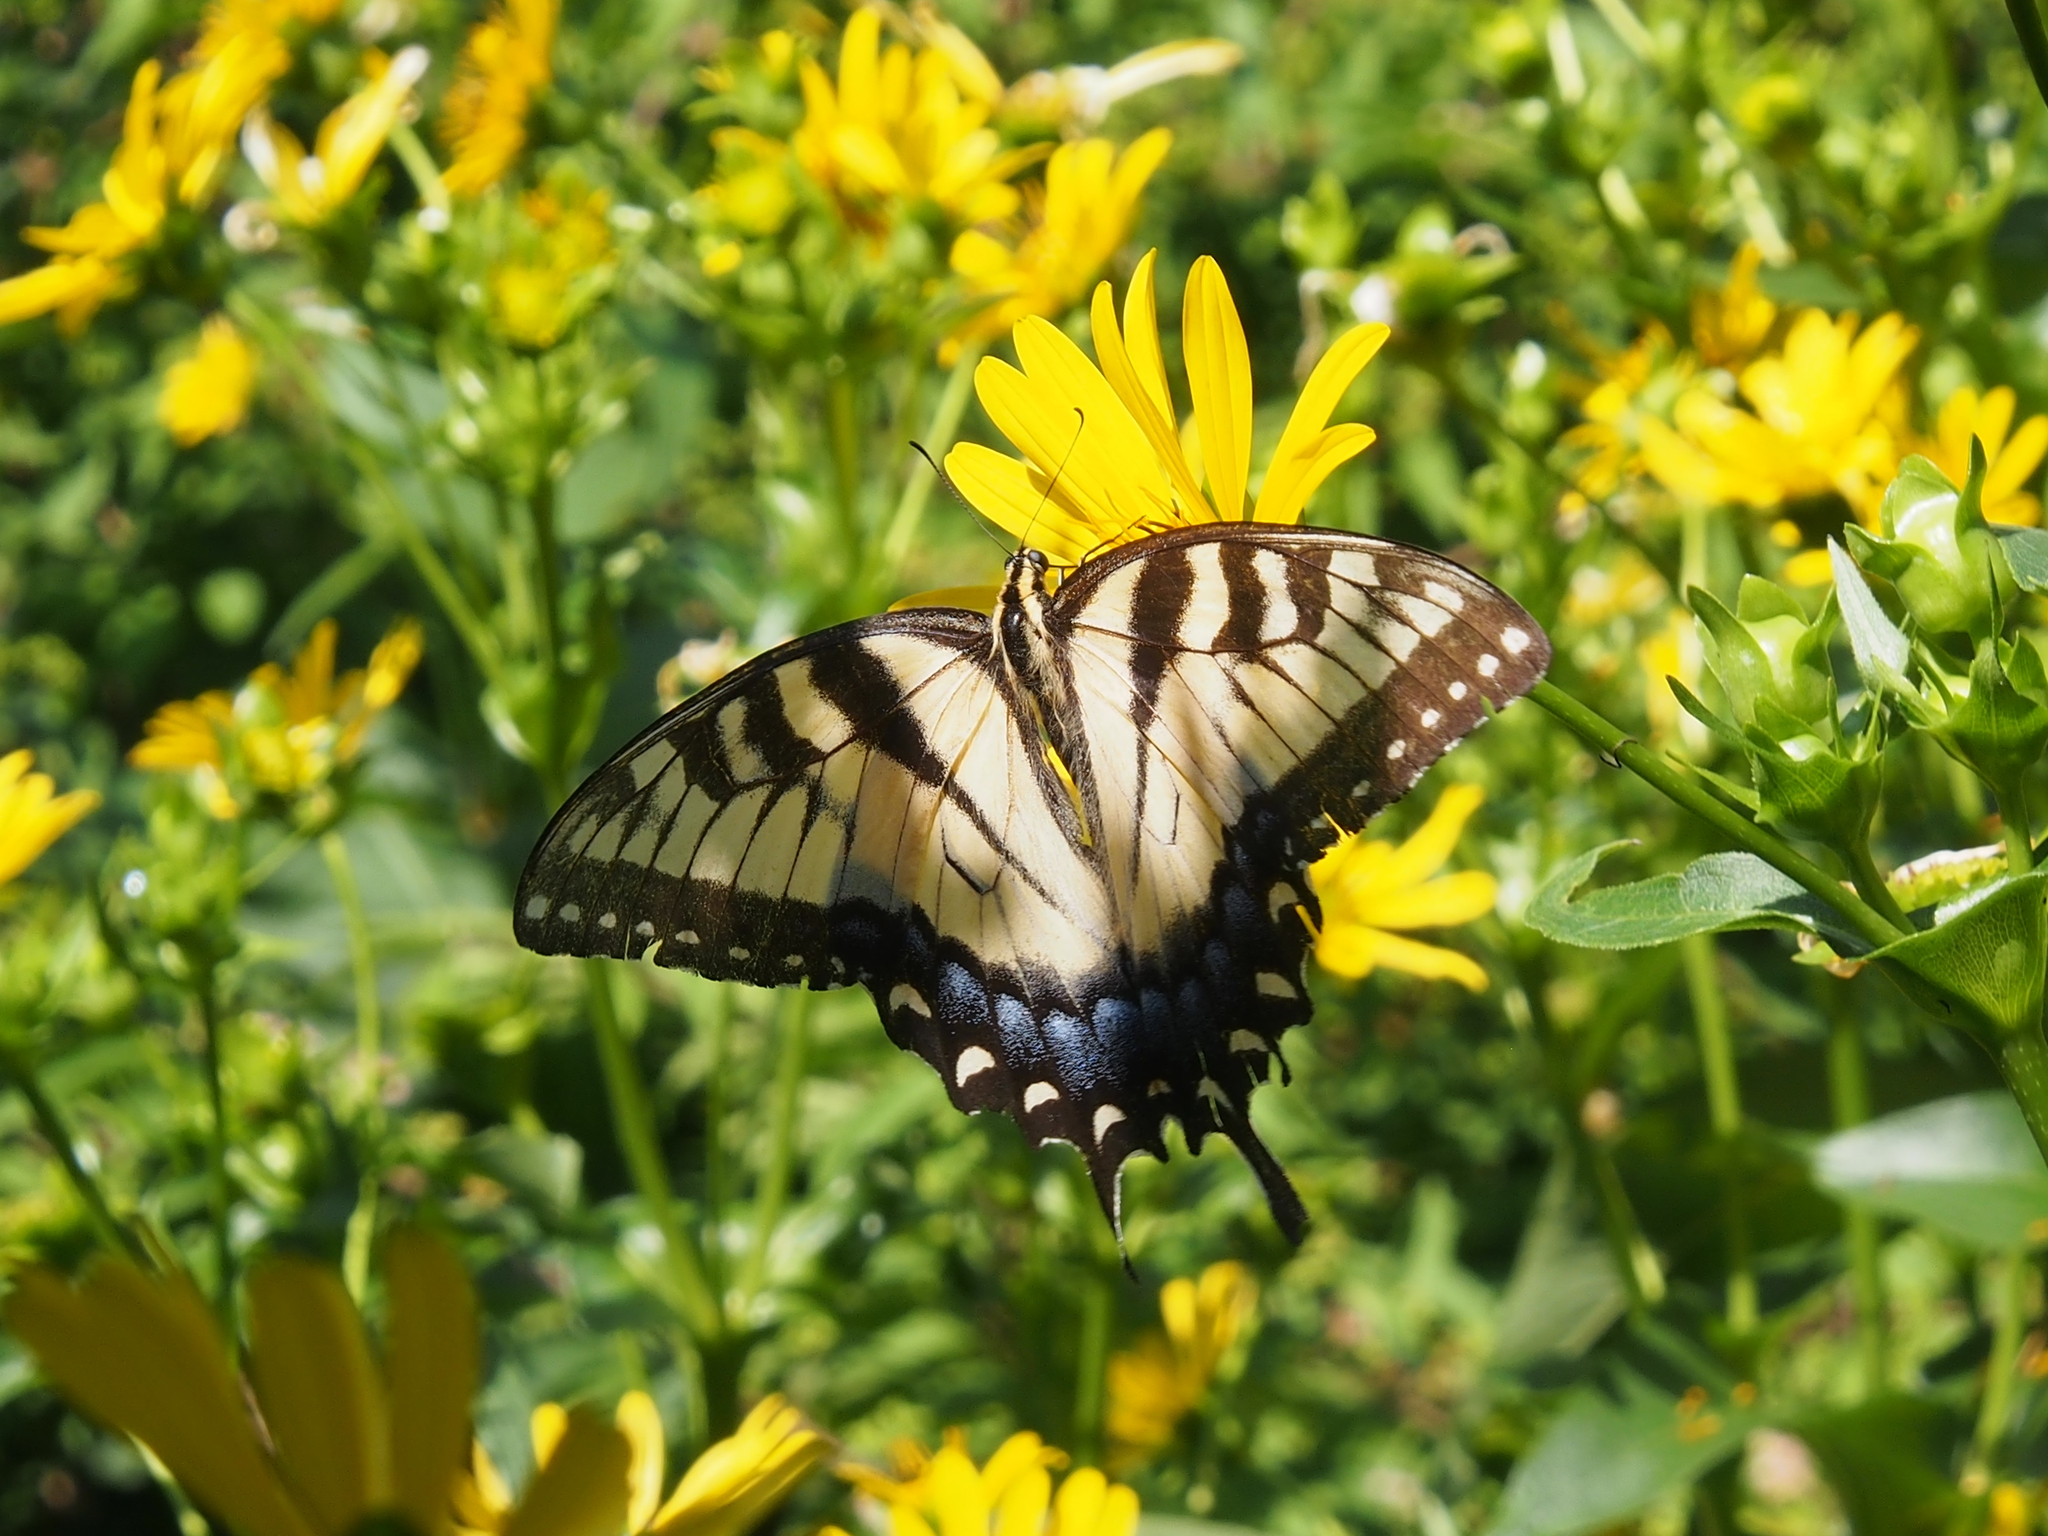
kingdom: Animalia
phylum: Arthropoda
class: Insecta
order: Lepidoptera
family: Papilionidae
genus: Papilio
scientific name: Papilio glaucus
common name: Tiger swallowtail
